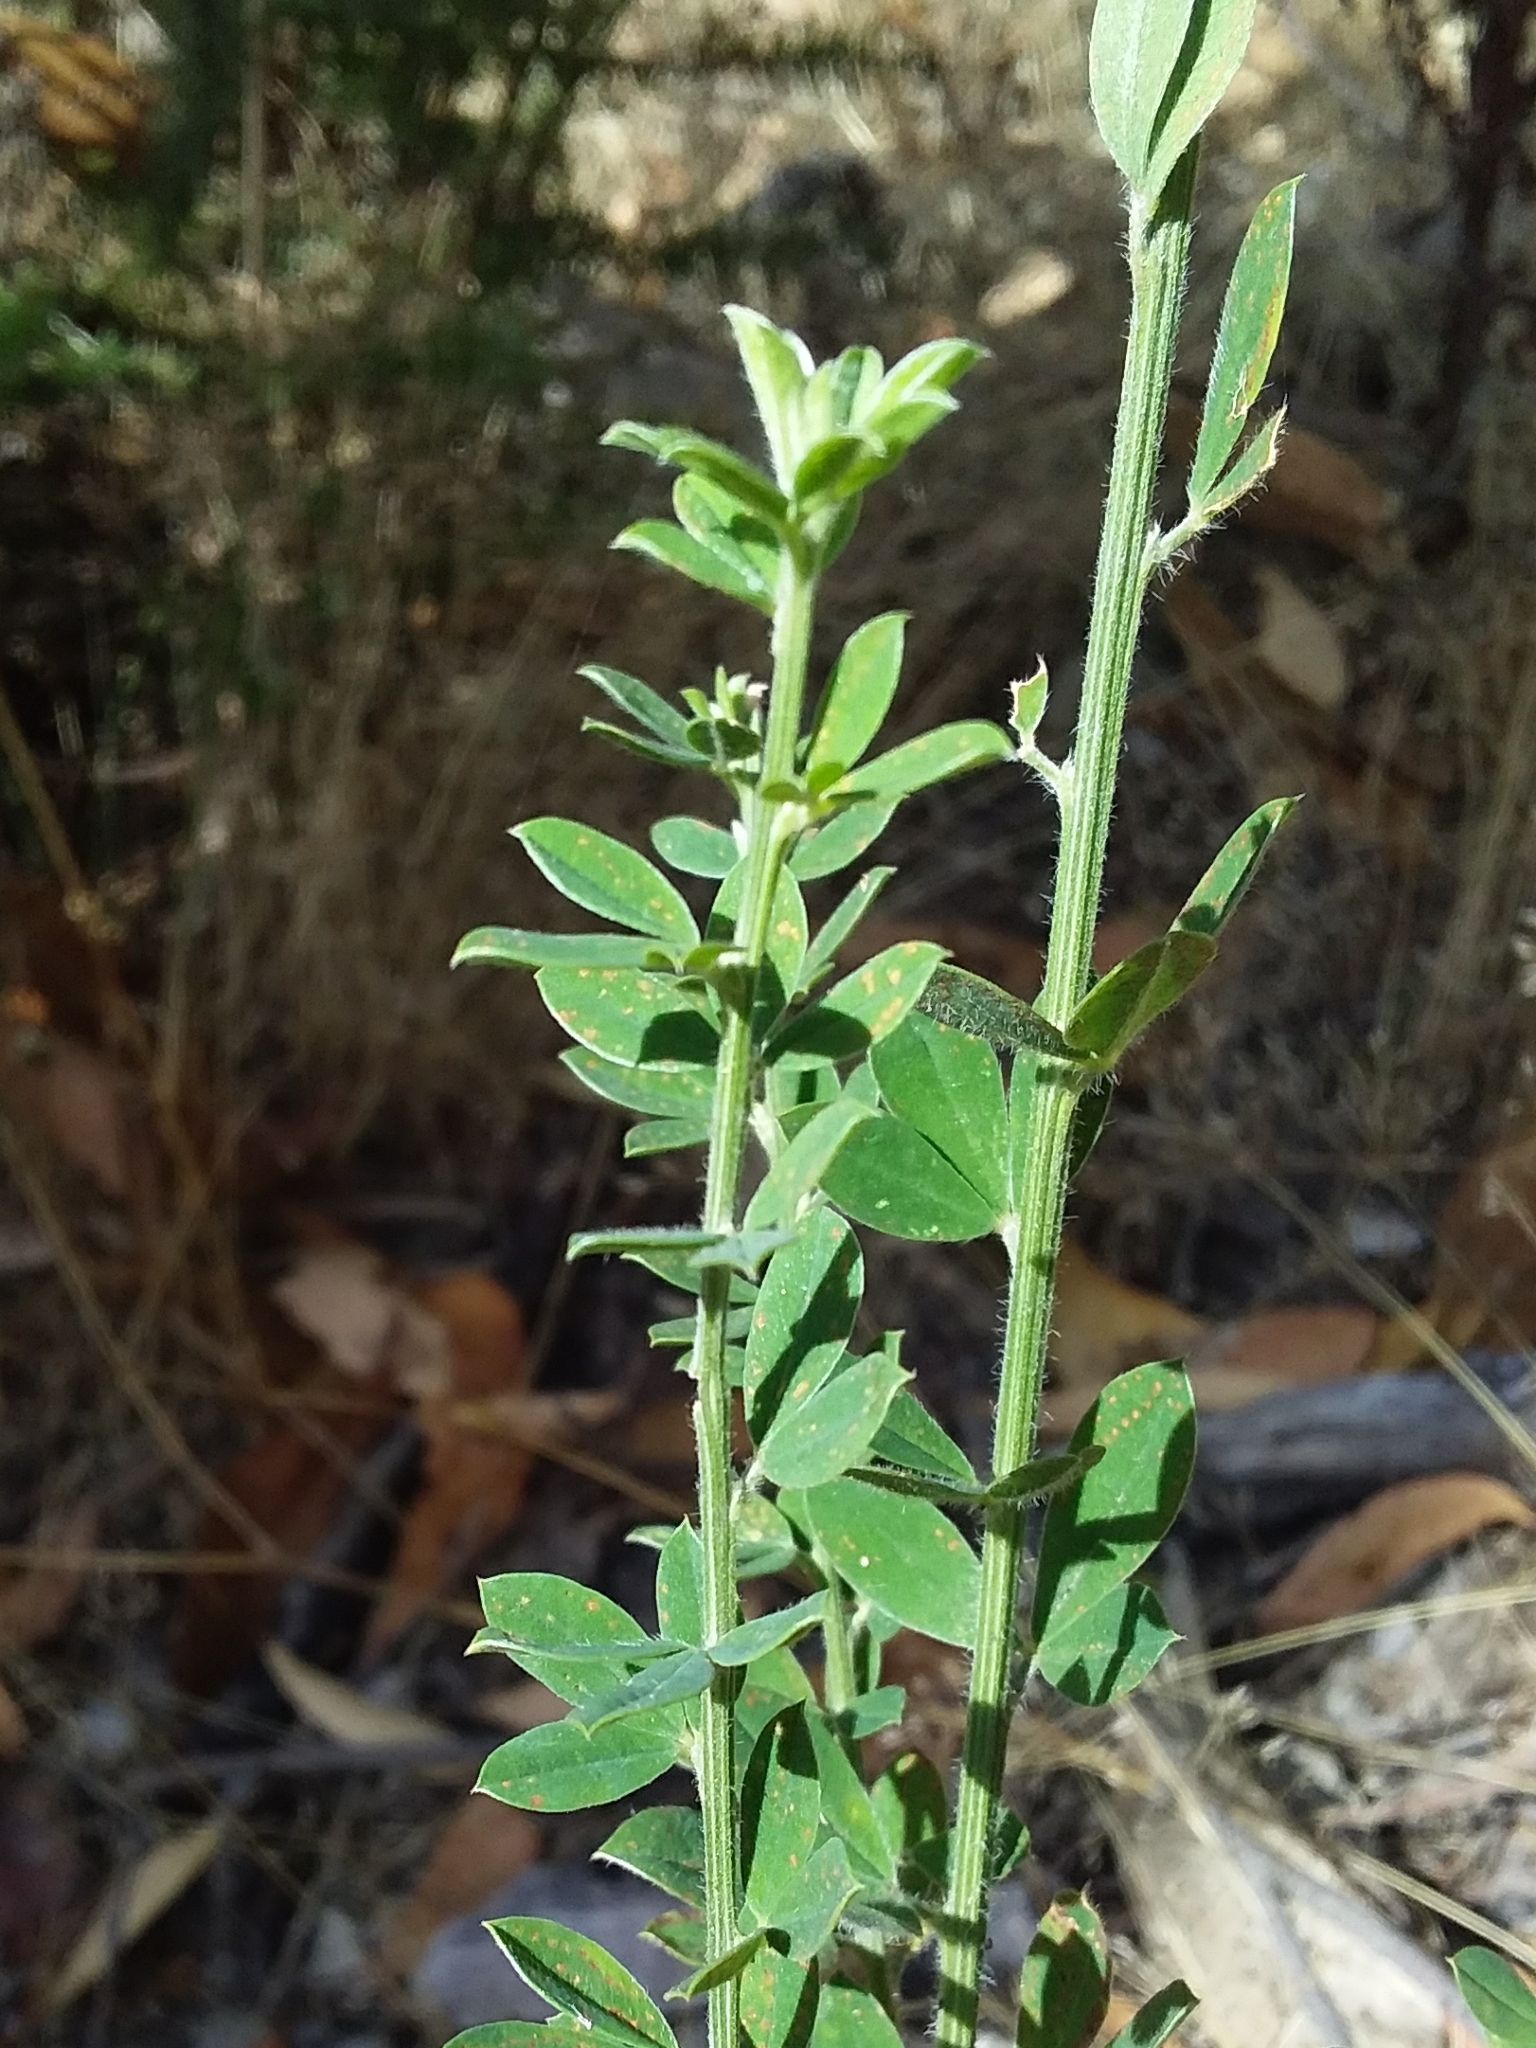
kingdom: Plantae
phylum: Tracheophyta
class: Magnoliopsida
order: Fabales
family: Fabaceae
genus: Genista
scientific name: Genista monspessulana
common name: Montpellier broom
